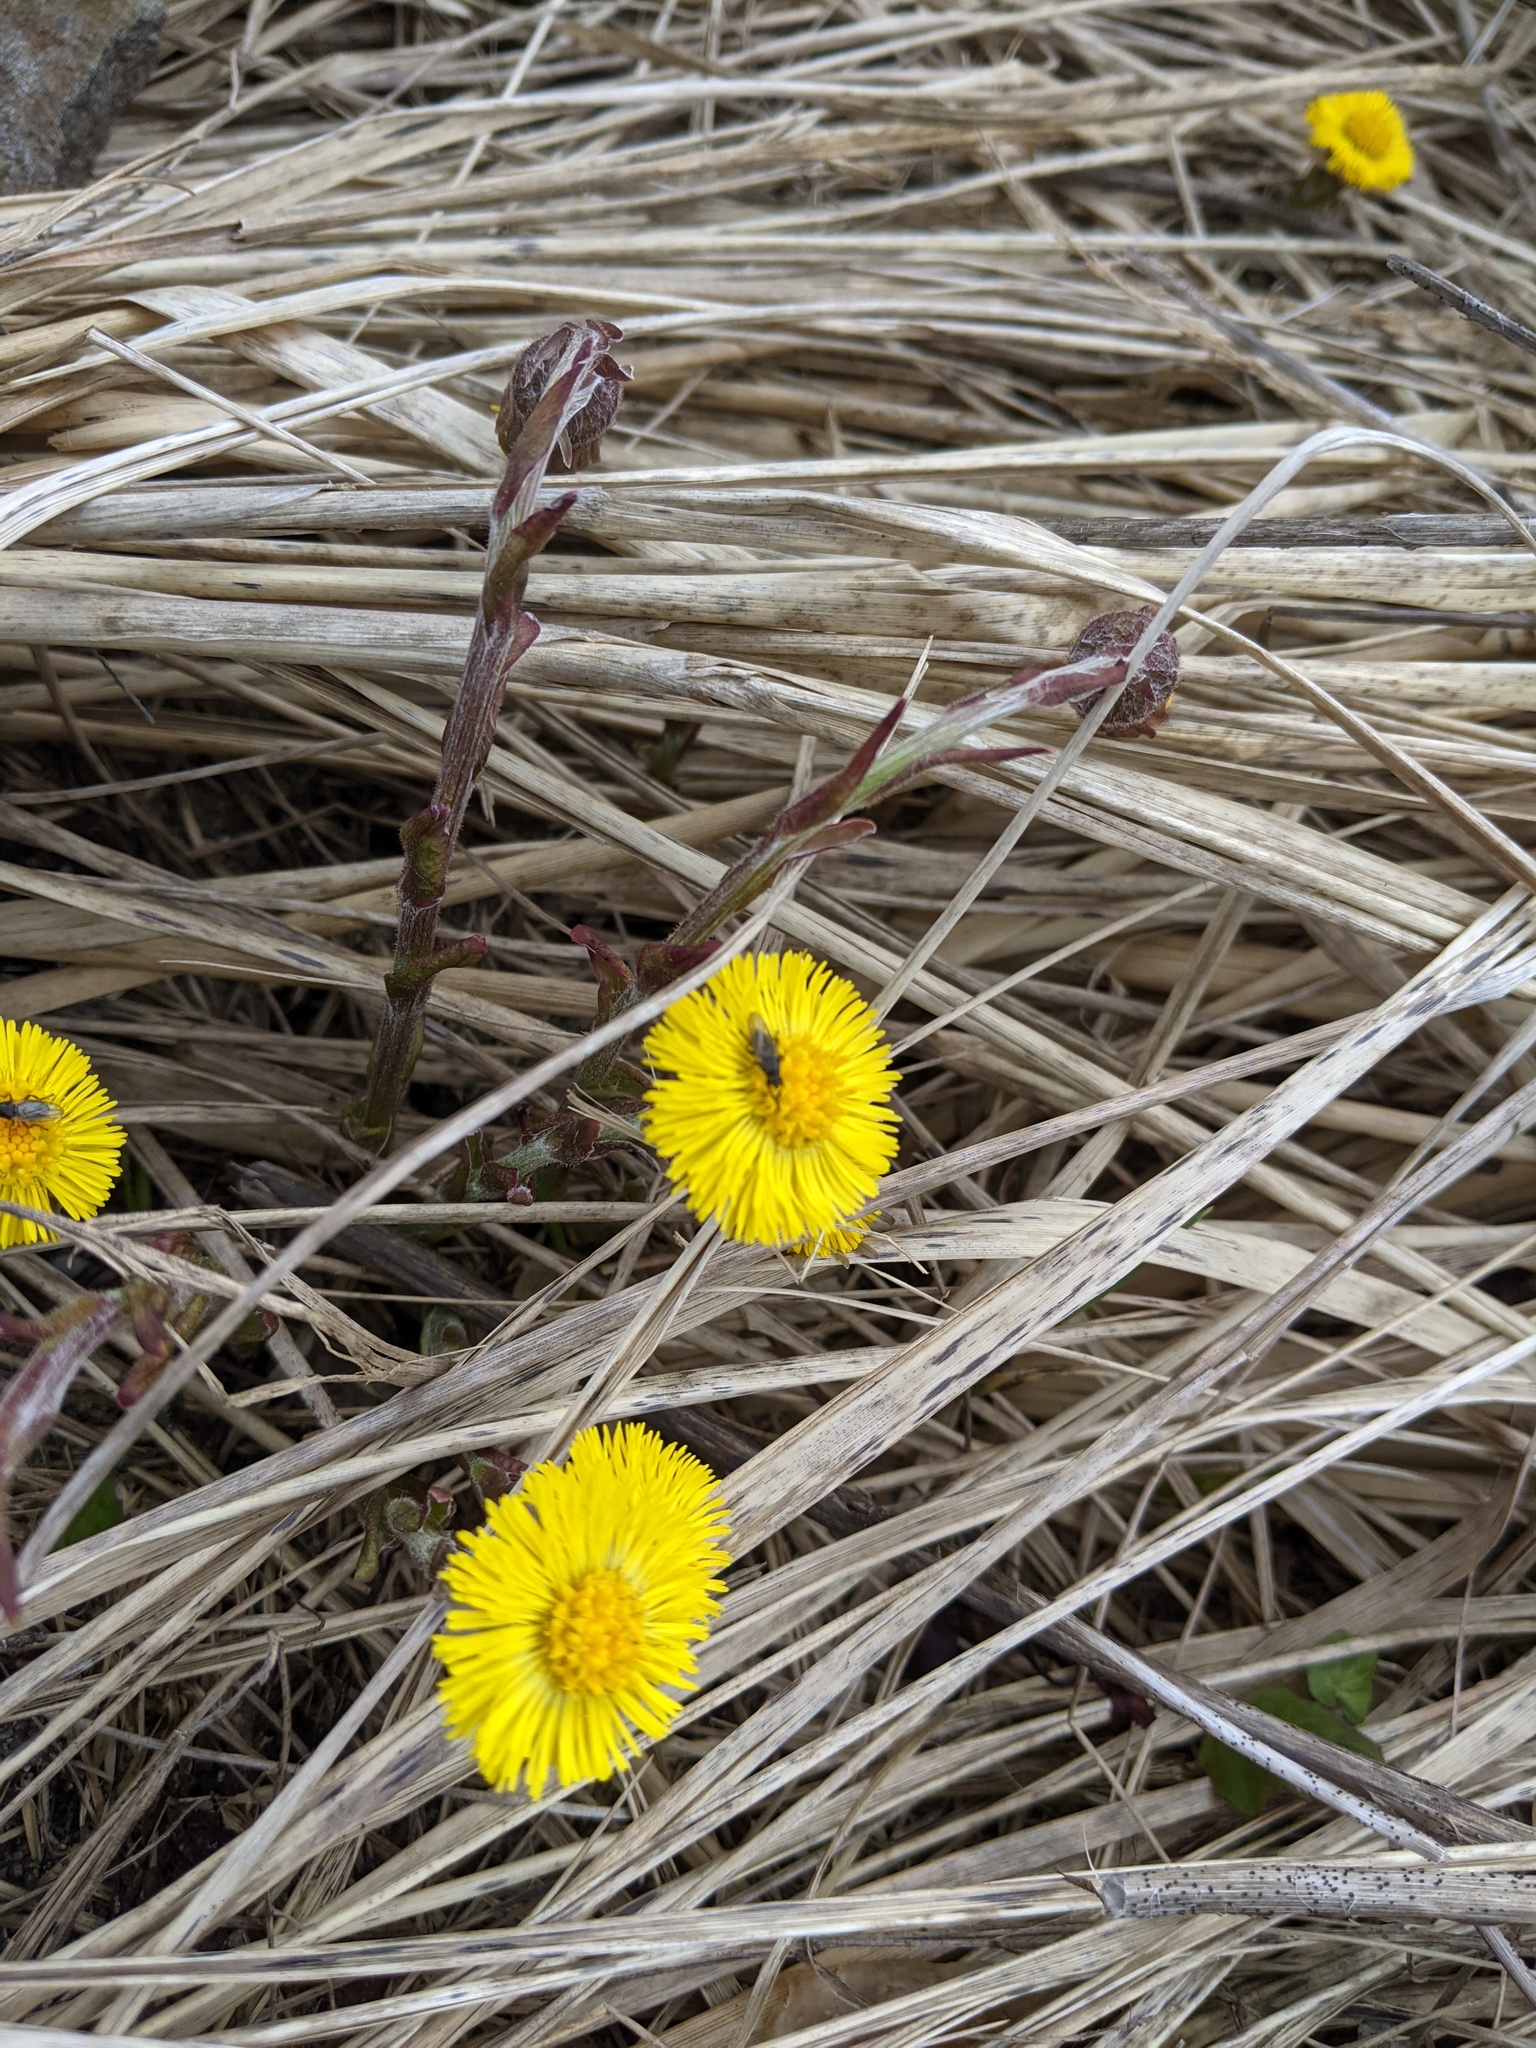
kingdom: Plantae
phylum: Tracheophyta
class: Magnoliopsida
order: Asterales
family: Asteraceae
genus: Tussilago
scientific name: Tussilago farfara
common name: Coltsfoot
